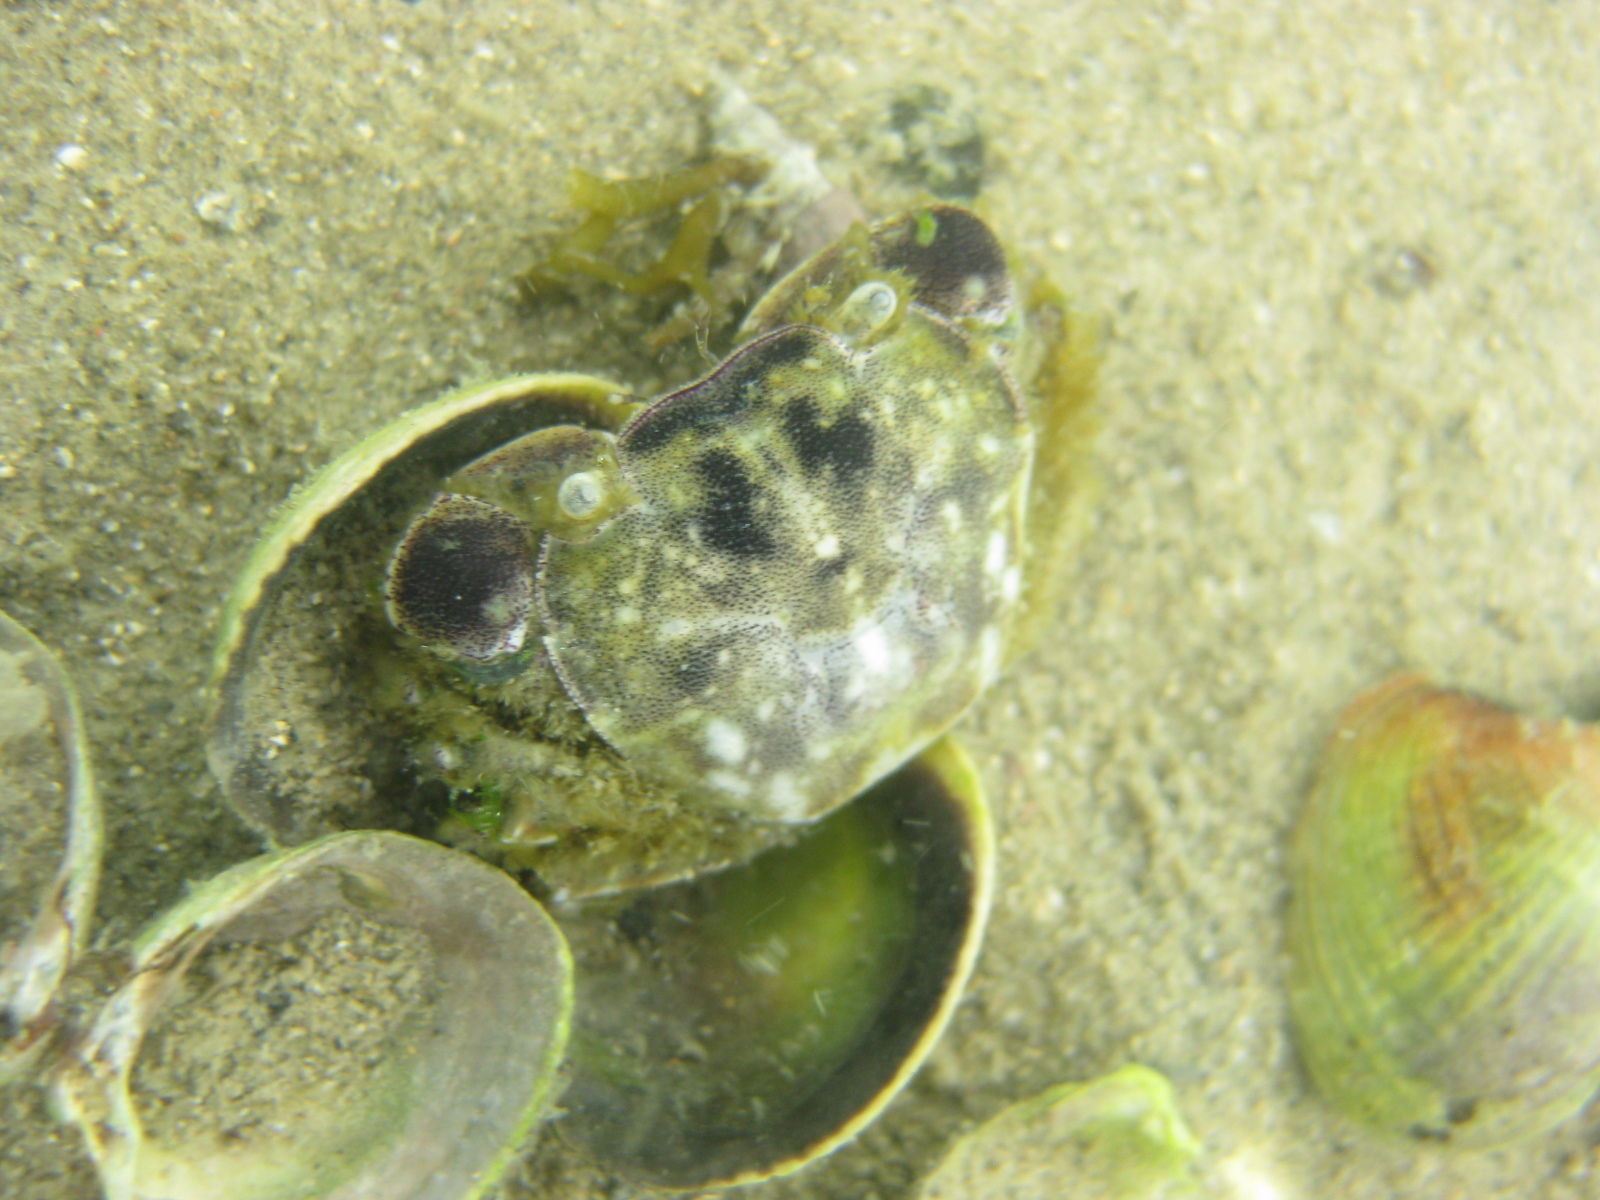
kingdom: Animalia
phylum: Arthropoda
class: Malacostraca
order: Decapoda
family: Varunidae
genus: Hemigrapsus
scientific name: Hemigrapsus crenulatus
